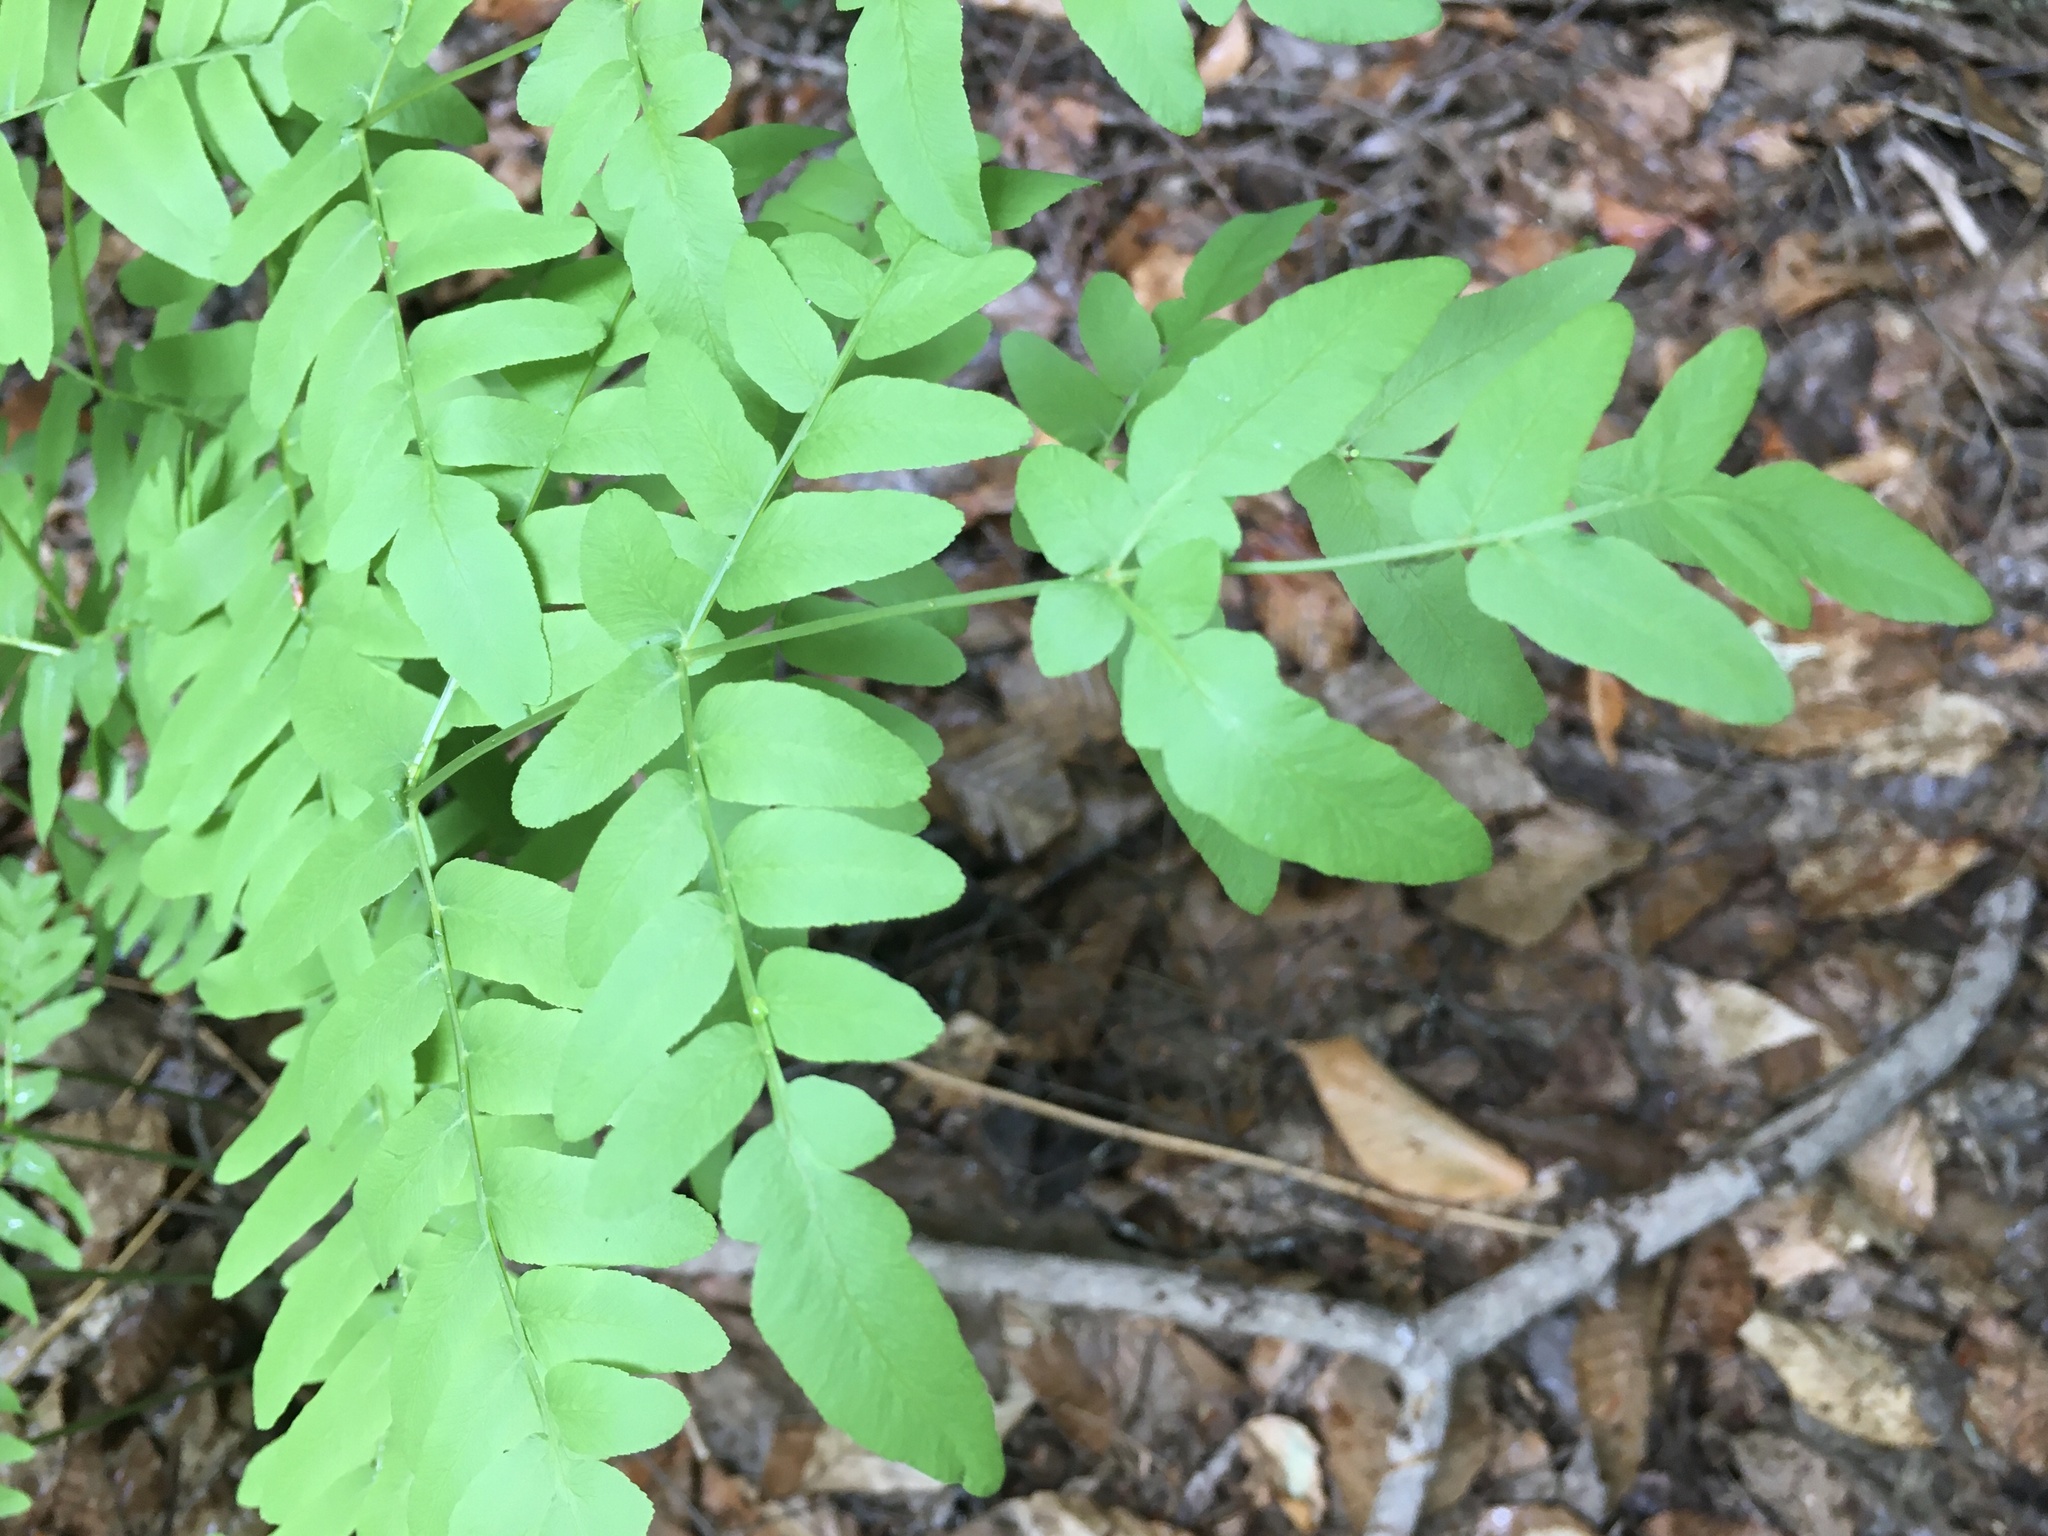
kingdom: Plantae
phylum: Tracheophyta
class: Polypodiopsida
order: Osmundales
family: Osmundaceae
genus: Osmunda
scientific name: Osmunda spectabilis
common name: American royal fern
